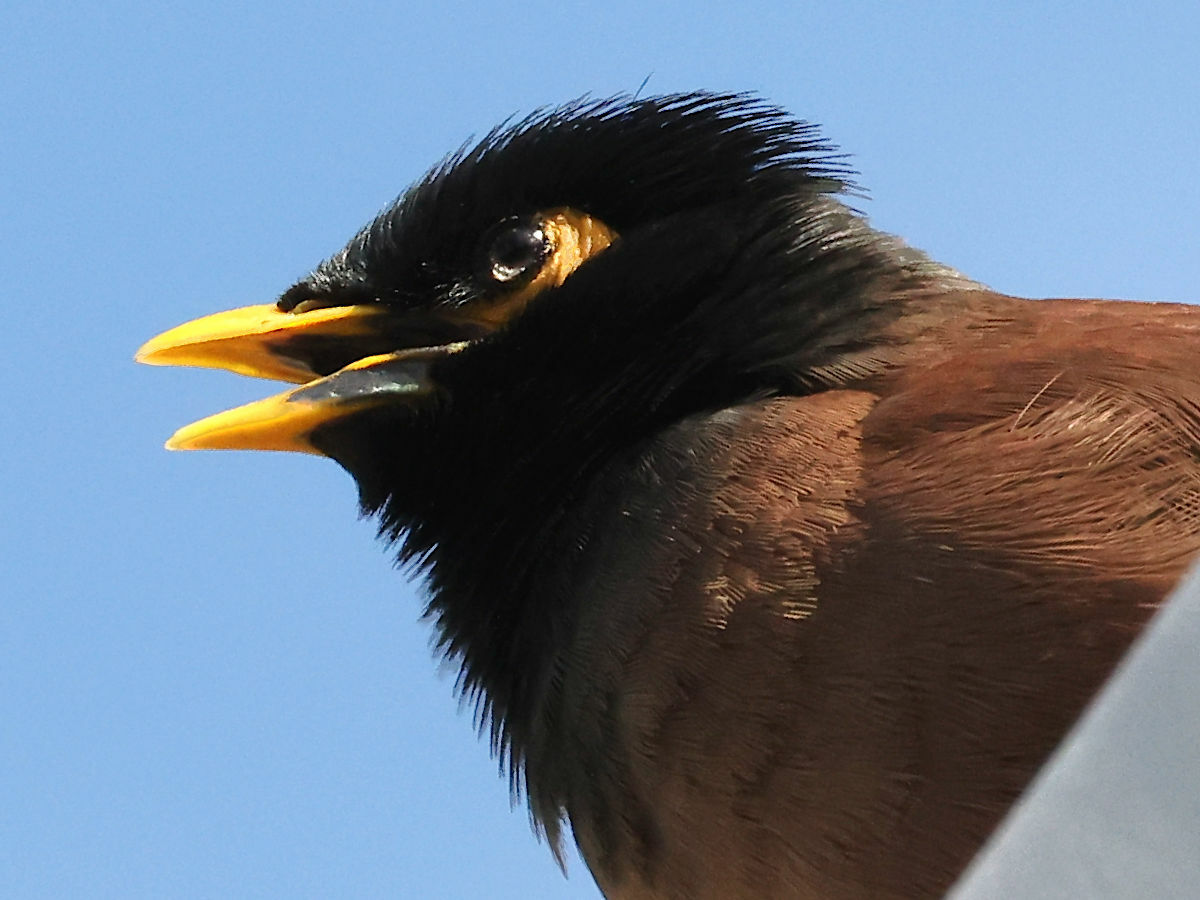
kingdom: Animalia
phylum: Chordata
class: Aves
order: Passeriformes
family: Sturnidae
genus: Acridotheres
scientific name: Acridotheres tristis
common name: Common myna
